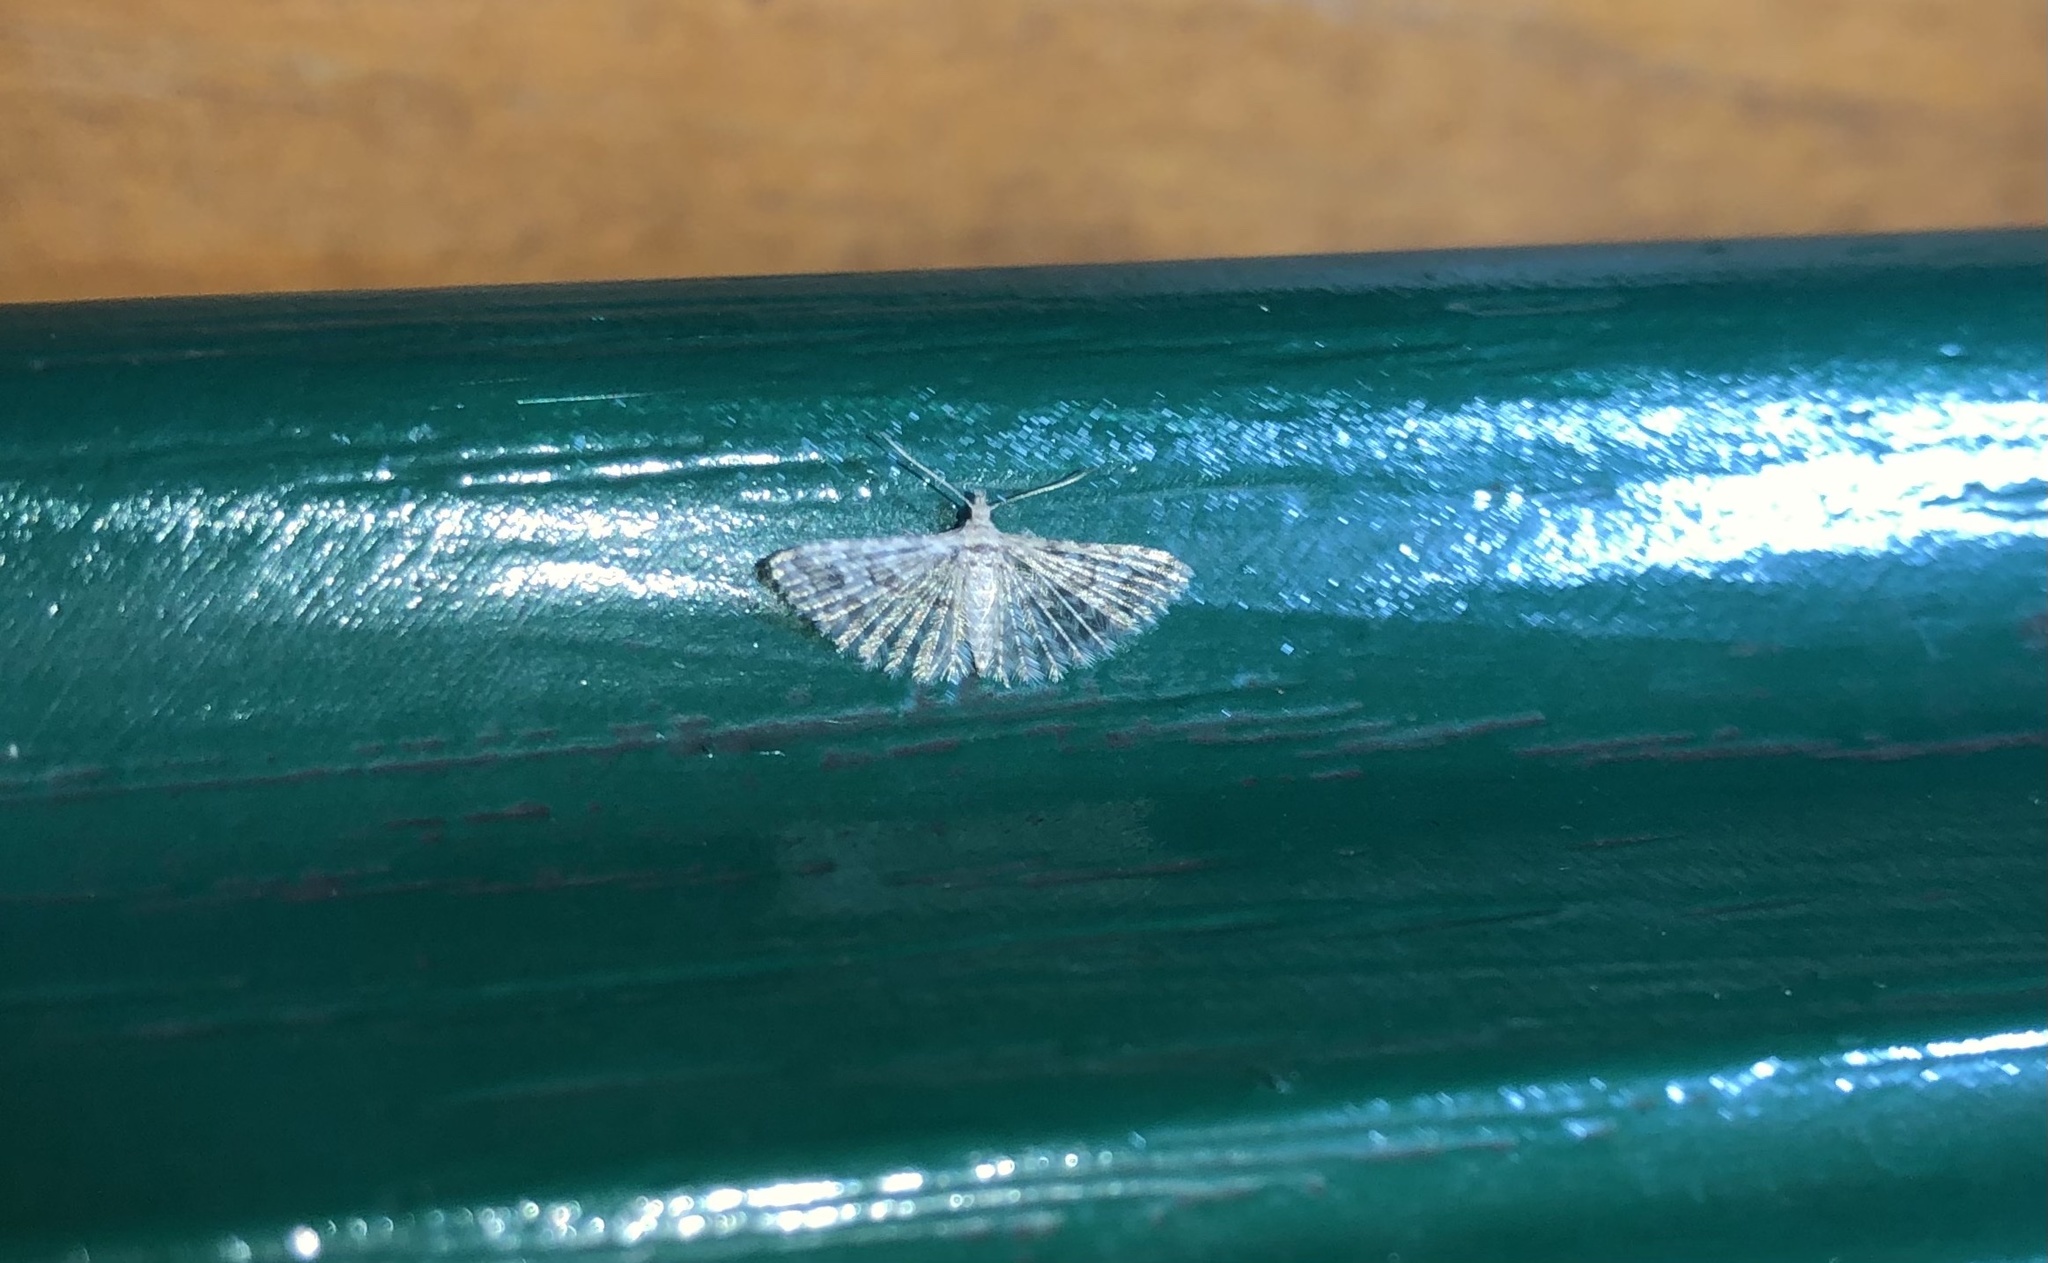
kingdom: Animalia
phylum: Arthropoda
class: Insecta
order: Lepidoptera
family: Alucitidae
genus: Alucita
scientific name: Alucita
